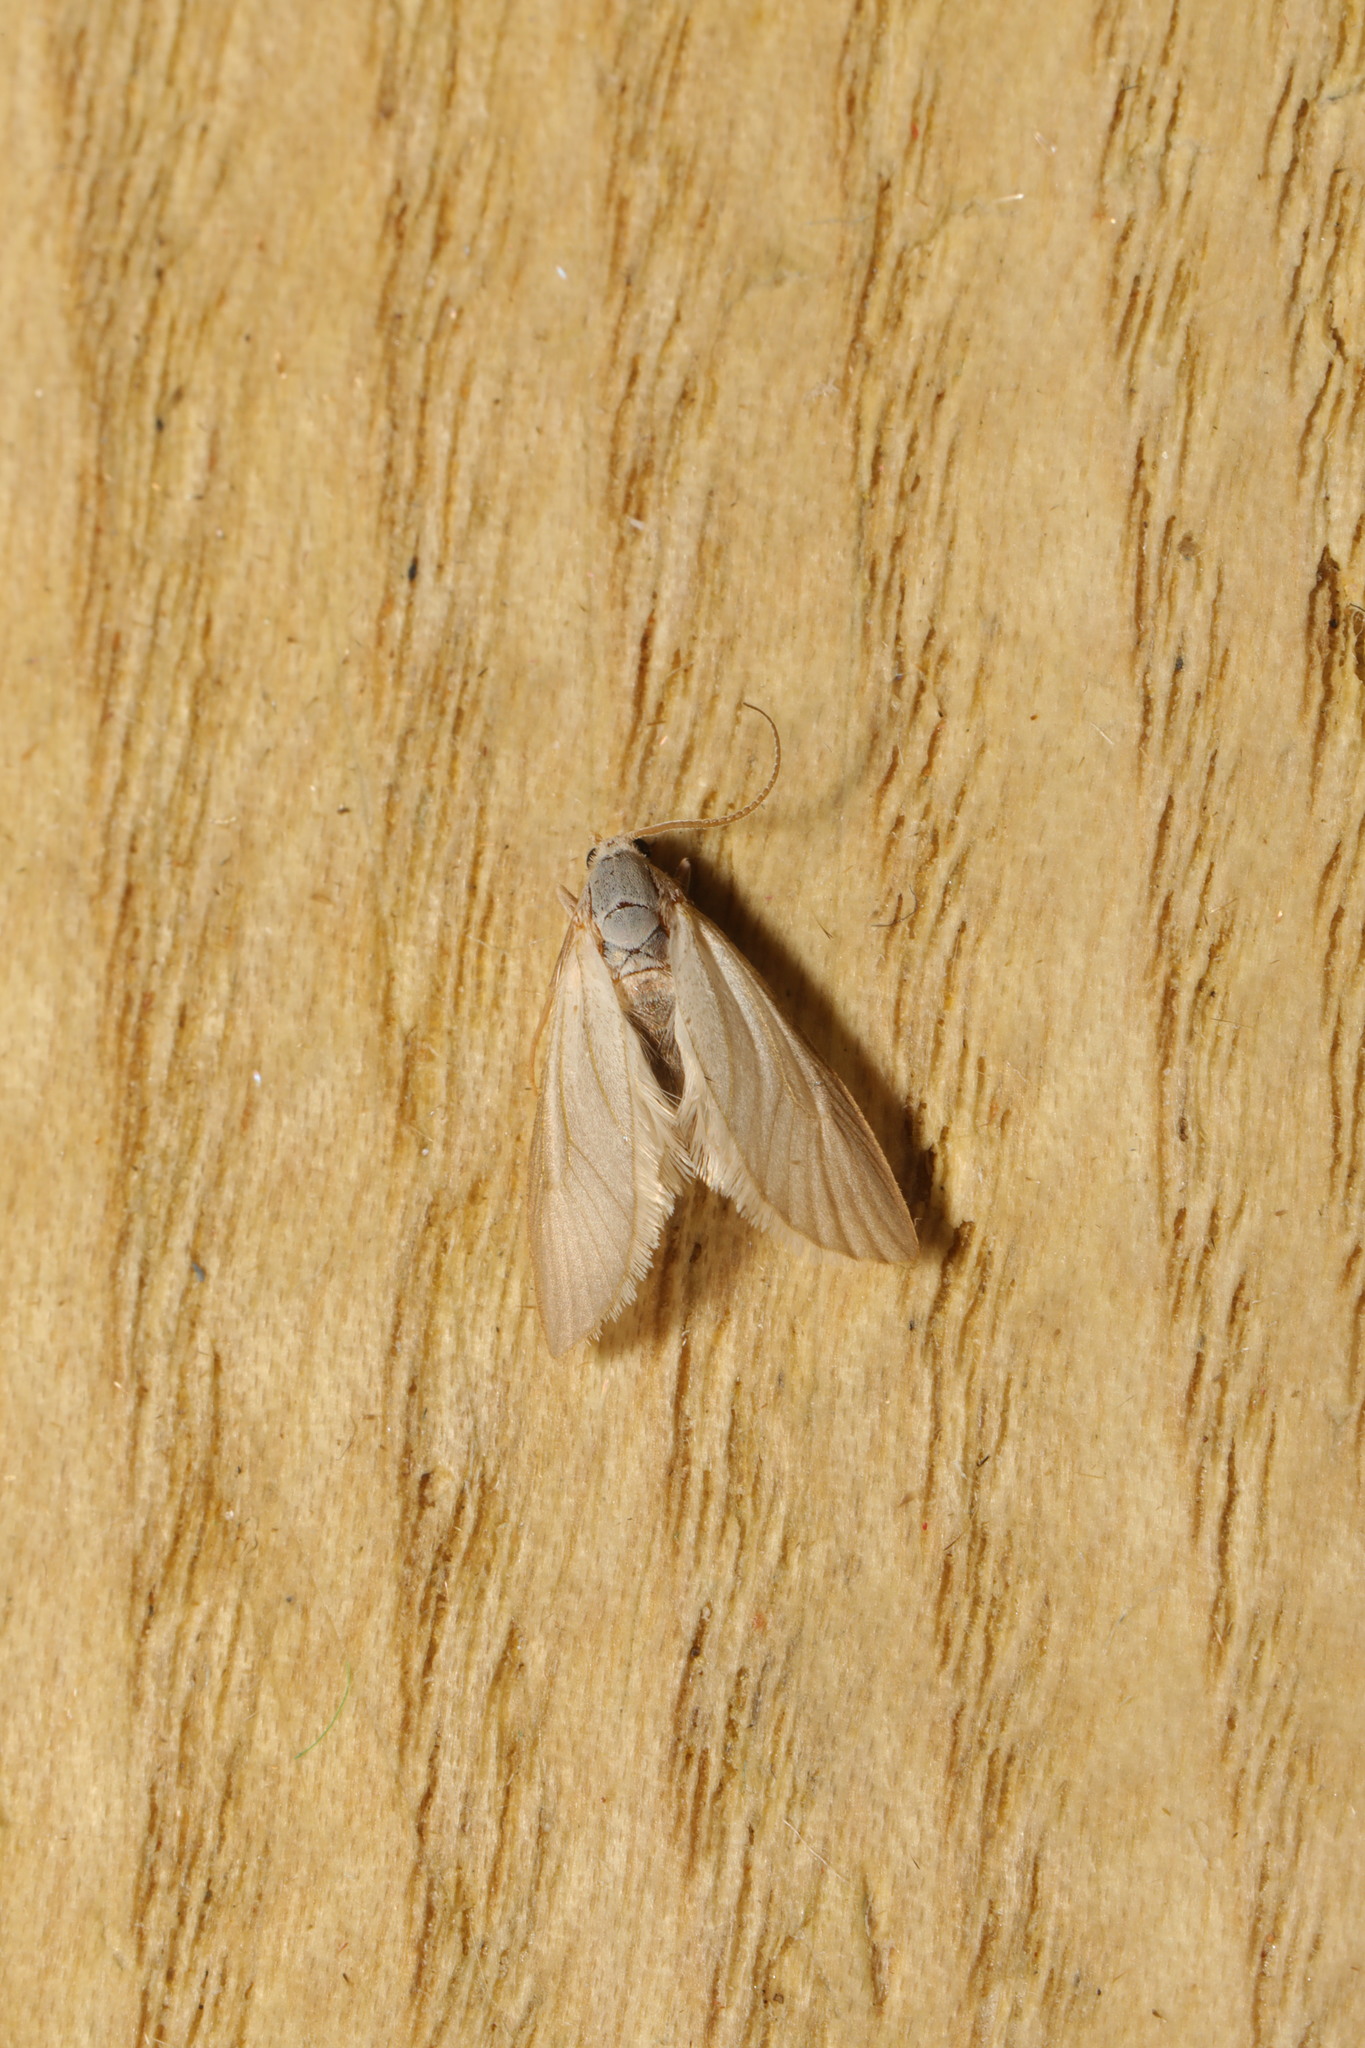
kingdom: Animalia
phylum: Arthropoda
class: Insecta
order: Lepidoptera
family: Crambidae
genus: Acentria
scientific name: Acentria ephemerella
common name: European water moth
